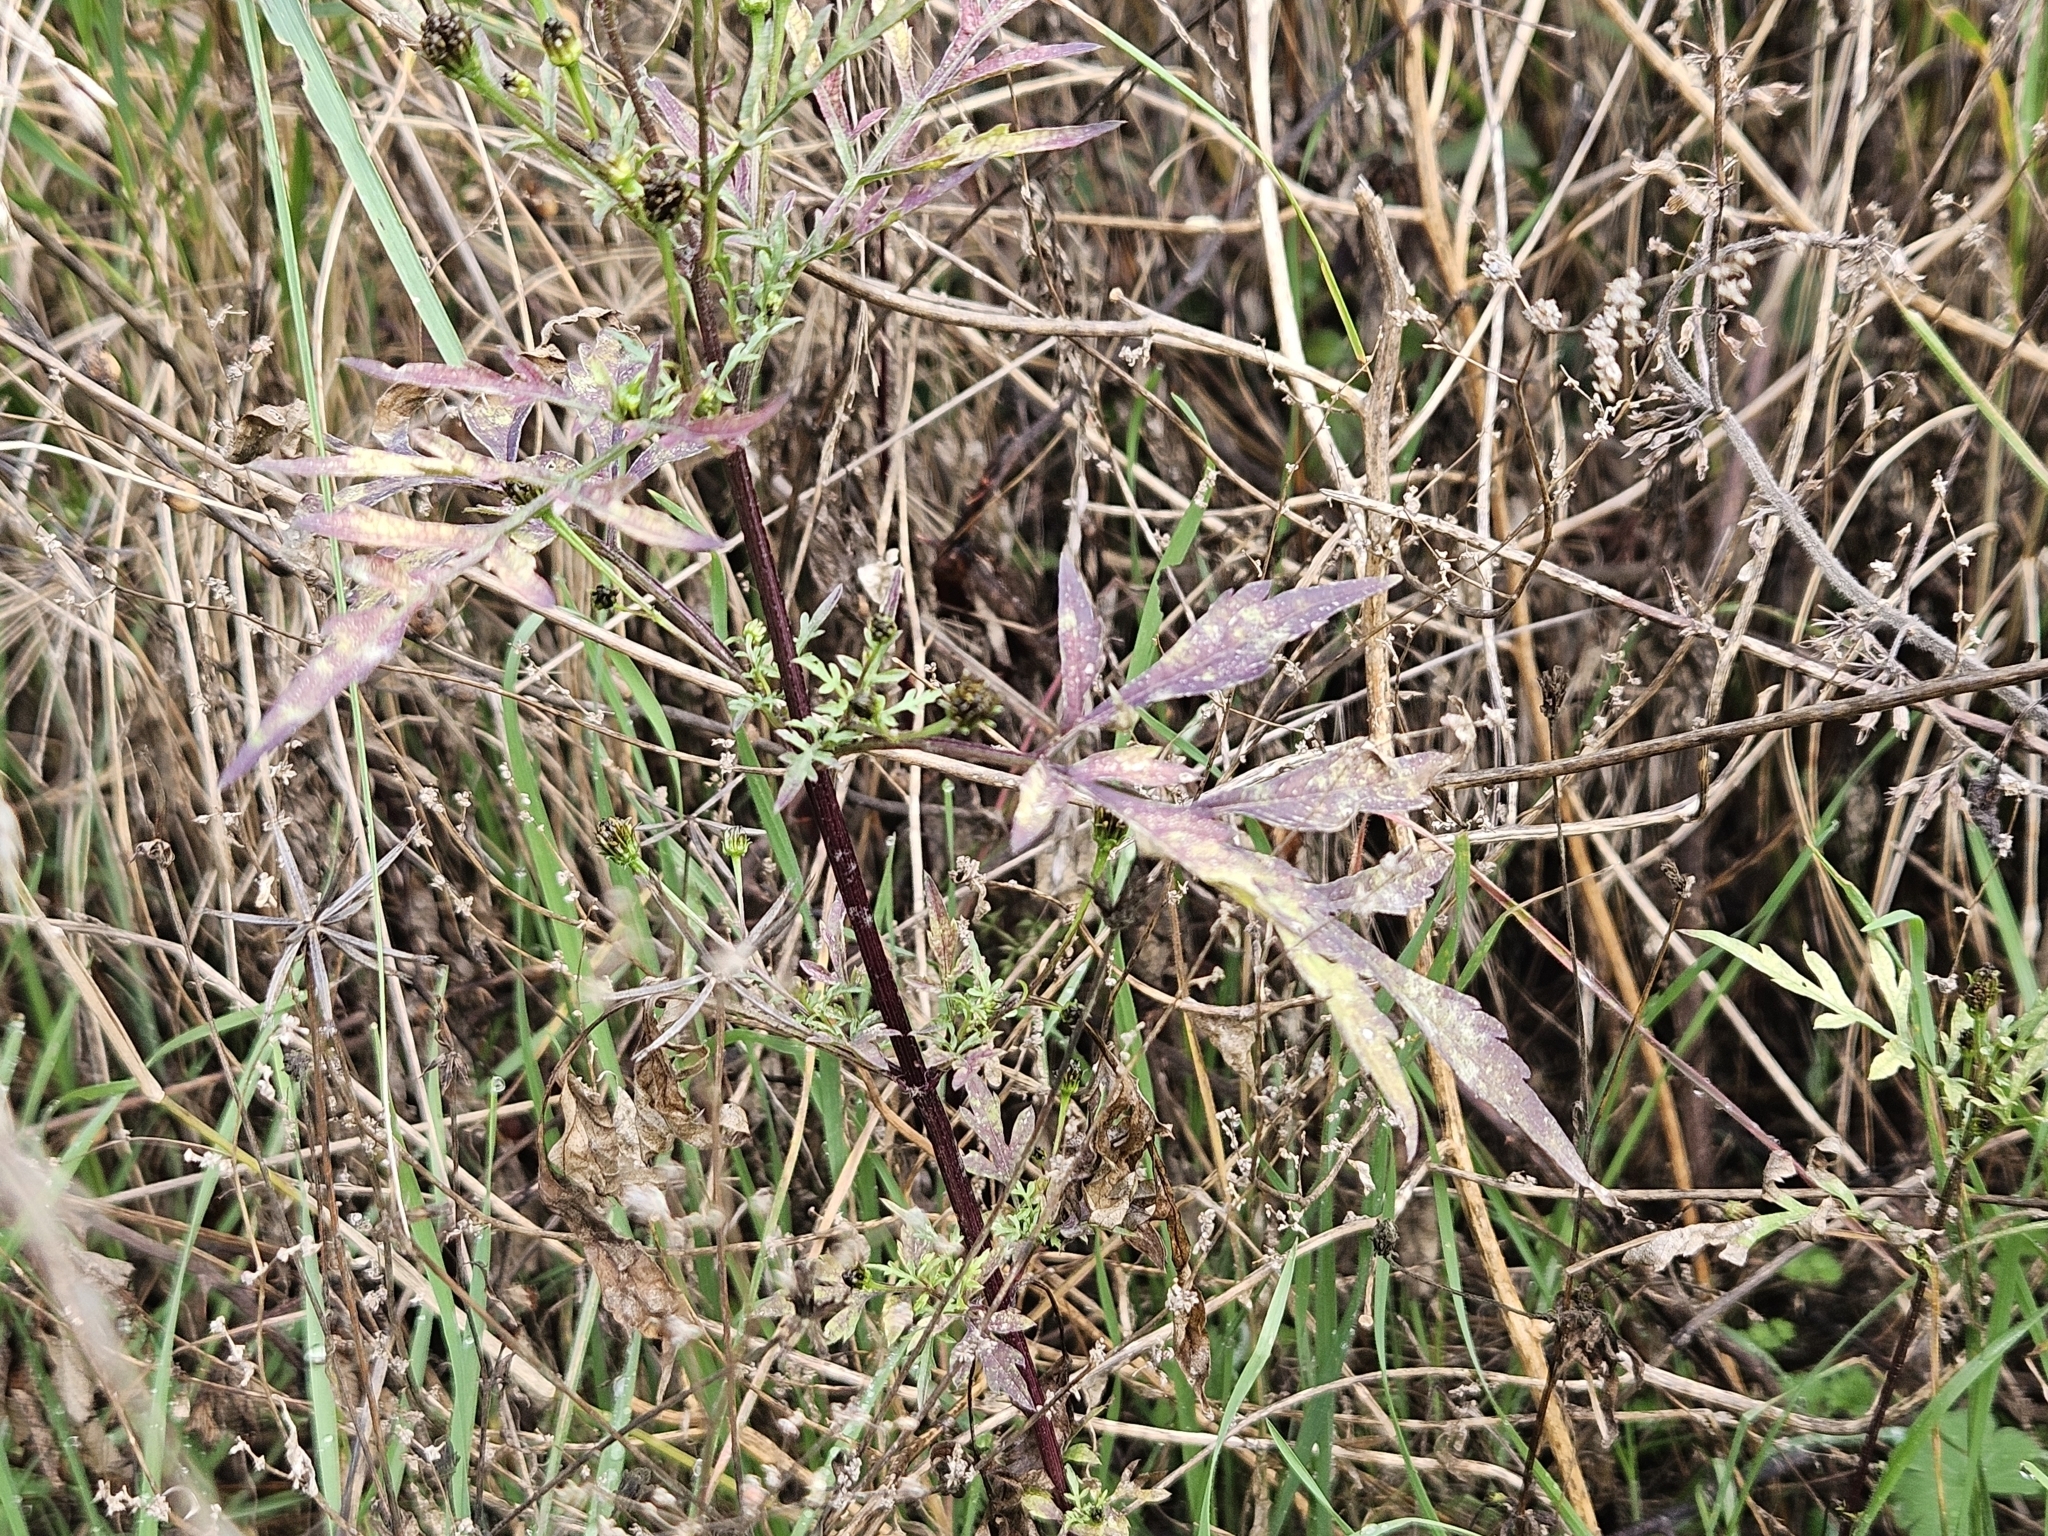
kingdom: Plantae
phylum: Tracheophyta
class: Magnoliopsida
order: Asterales
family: Asteraceae
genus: Bidens
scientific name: Bidens subalternans
